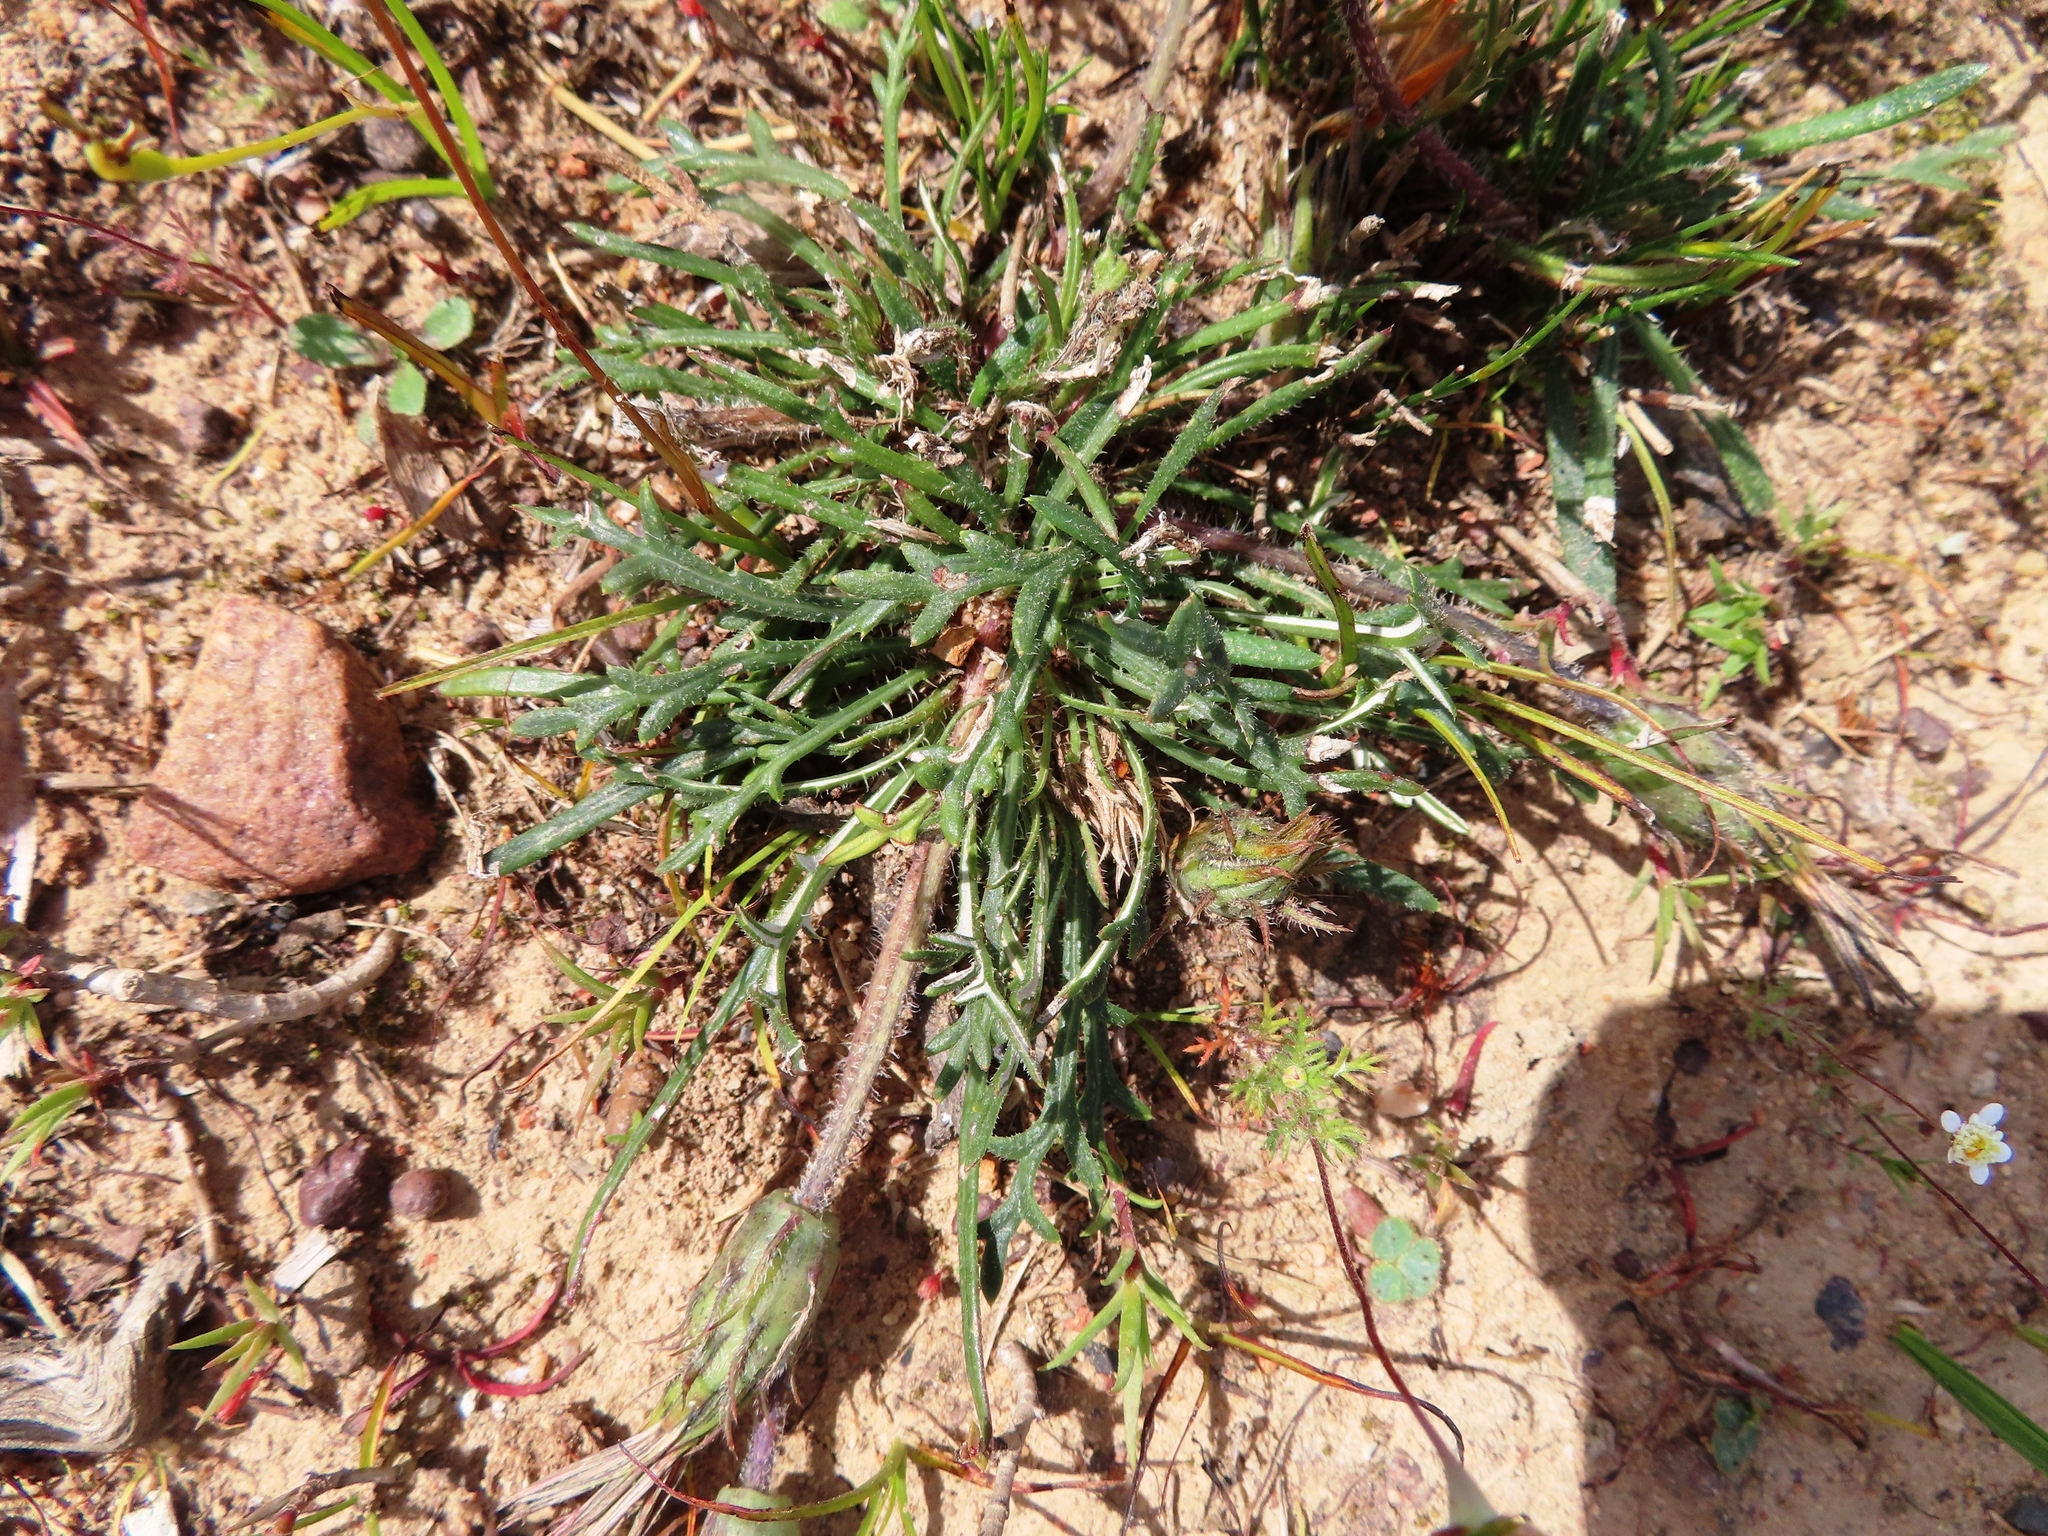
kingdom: Plantae
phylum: Tracheophyta
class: Magnoliopsida
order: Asterales
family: Asteraceae
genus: Gazania
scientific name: Gazania ciliaris
